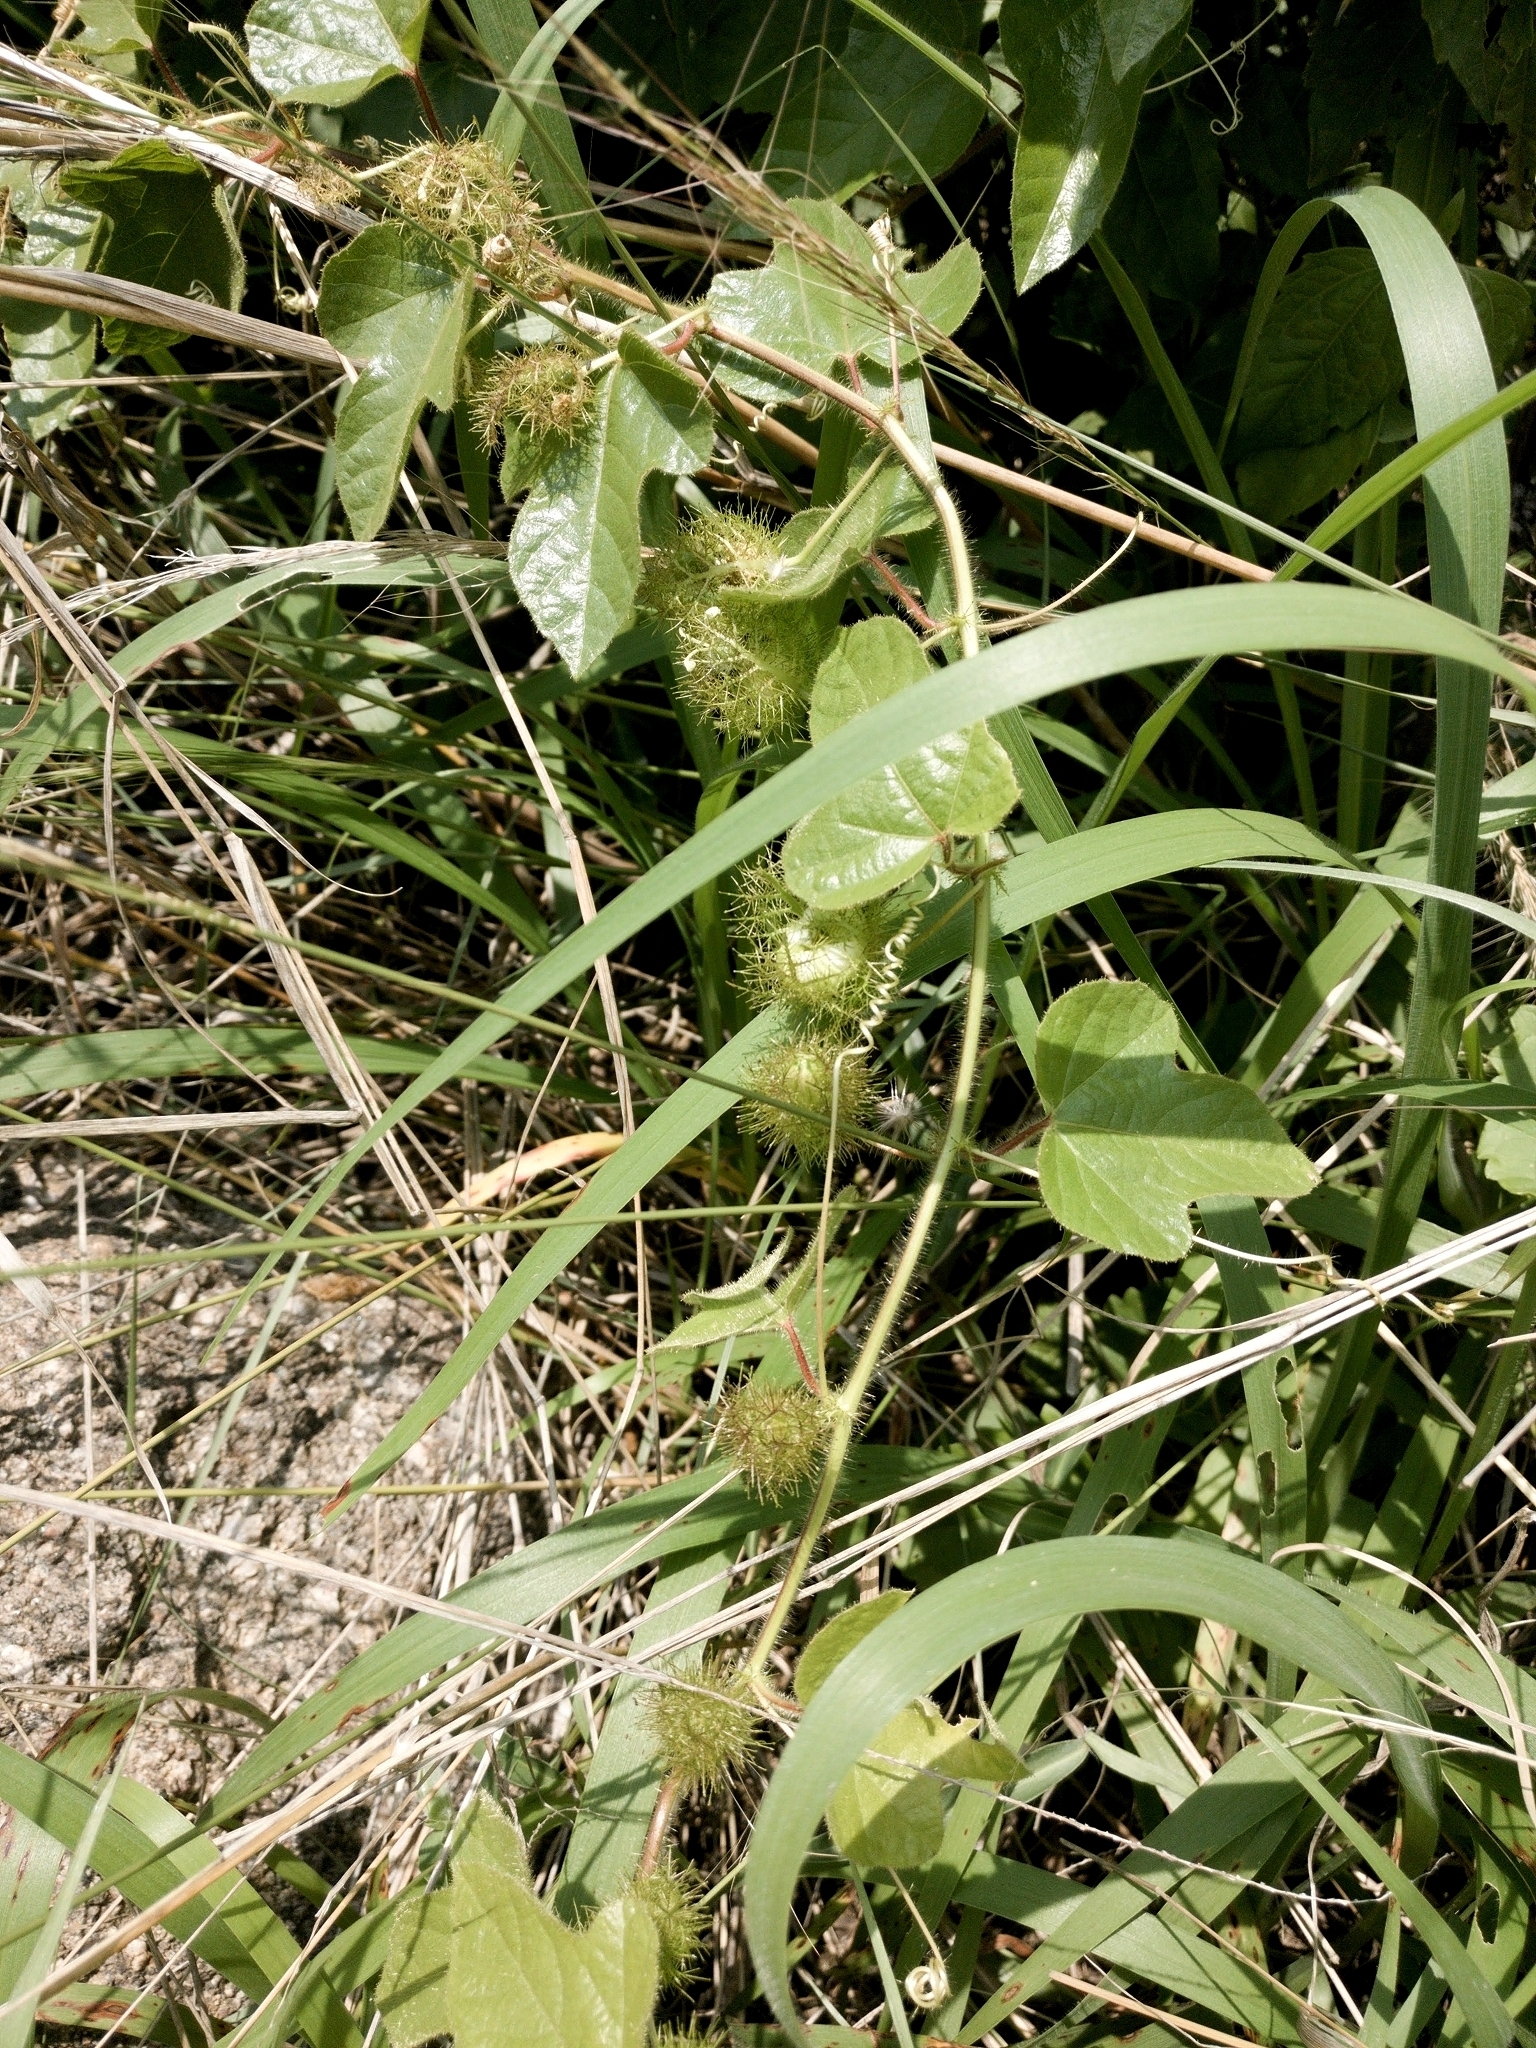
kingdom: Plantae
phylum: Tracheophyta
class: Magnoliopsida
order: Malpighiales
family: Passifloraceae
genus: Passiflora
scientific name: Passiflora foetida
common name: Fetid passionflower
